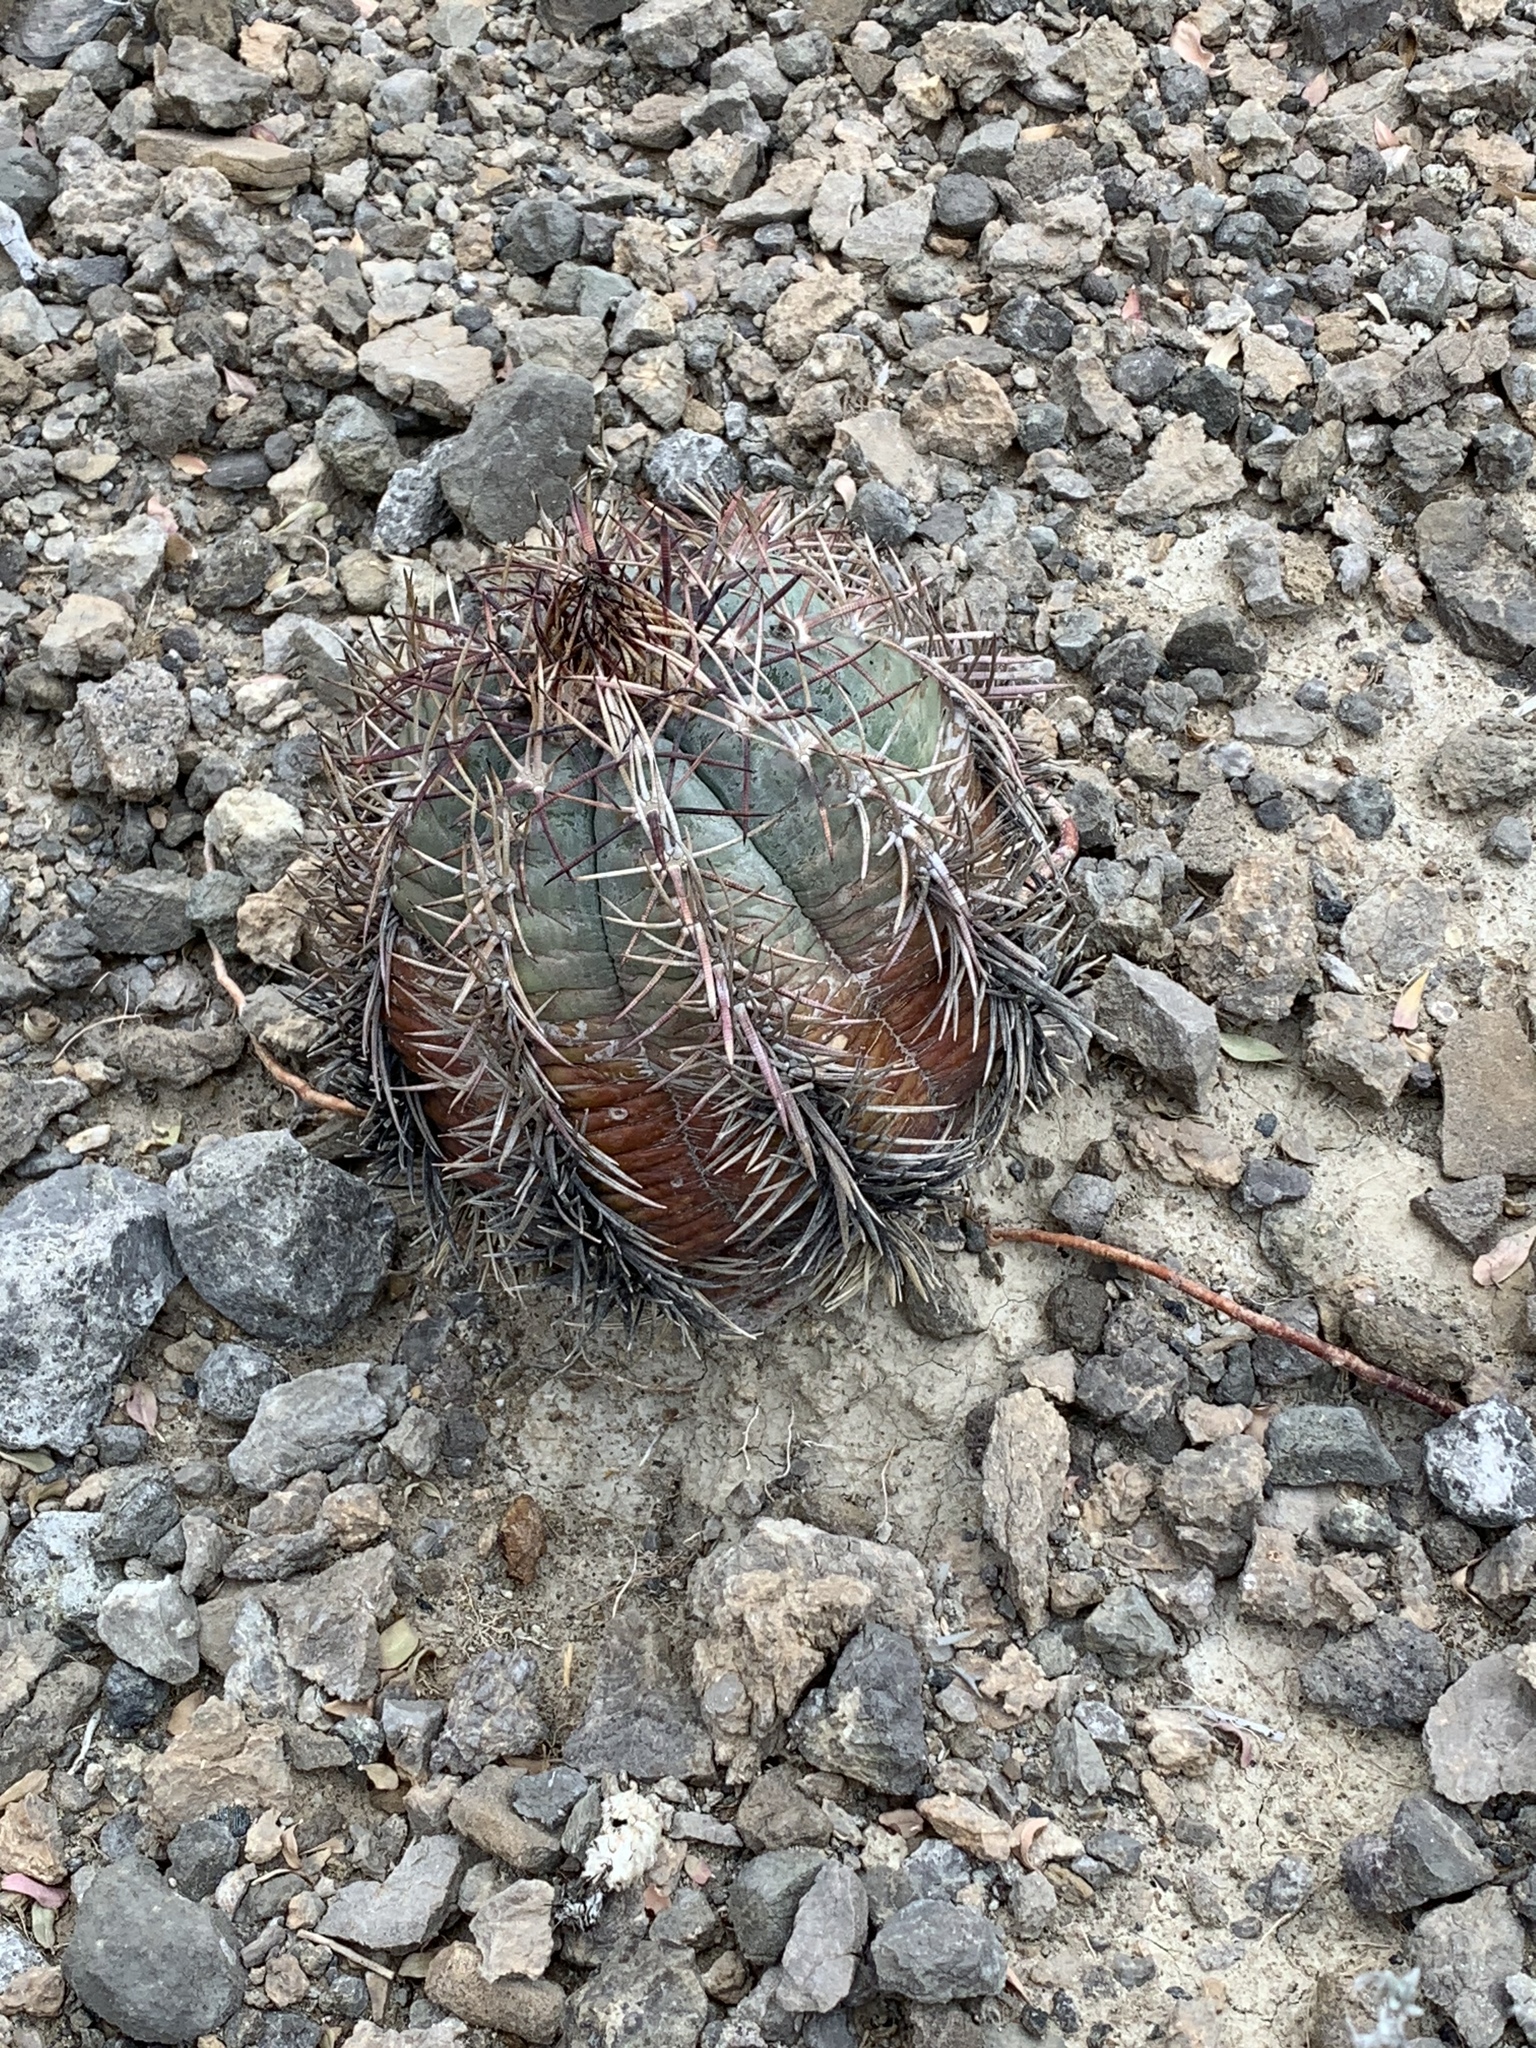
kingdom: Plantae
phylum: Tracheophyta
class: Magnoliopsida
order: Caryophyllales
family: Cactaceae
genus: Echinocactus
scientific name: Echinocactus horizonthalonius
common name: Devilshead
